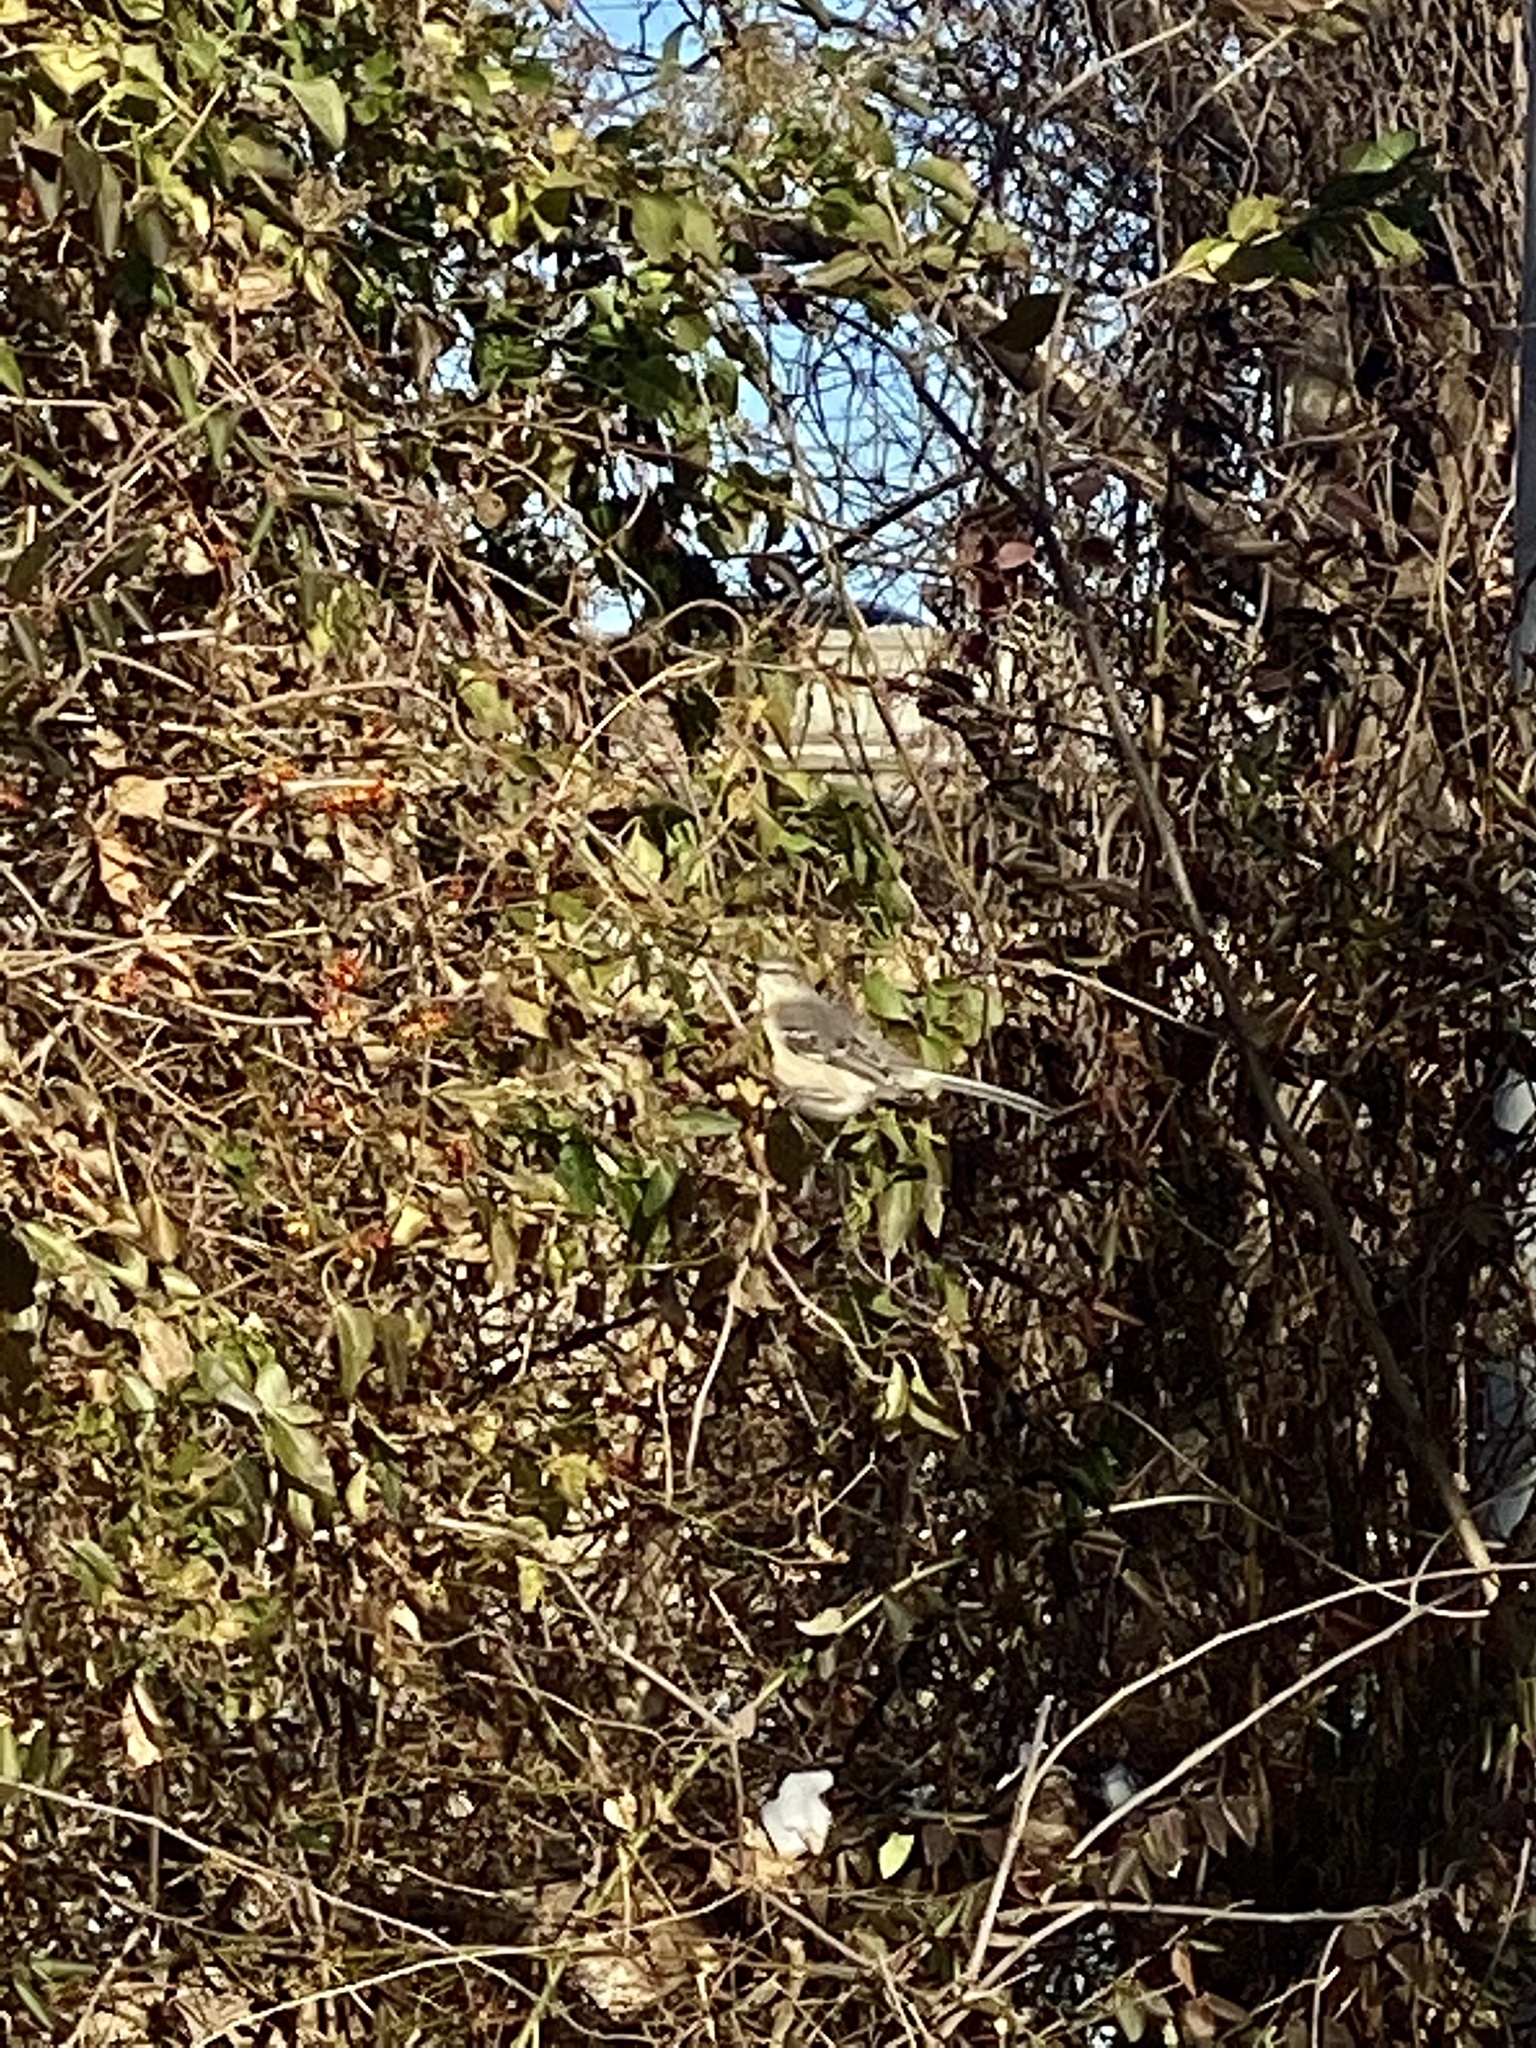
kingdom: Animalia
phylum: Chordata
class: Aves
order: Passeriformes
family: Mimidae
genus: Mimus
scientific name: Mimus polyglottos
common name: Northern mockingbird
